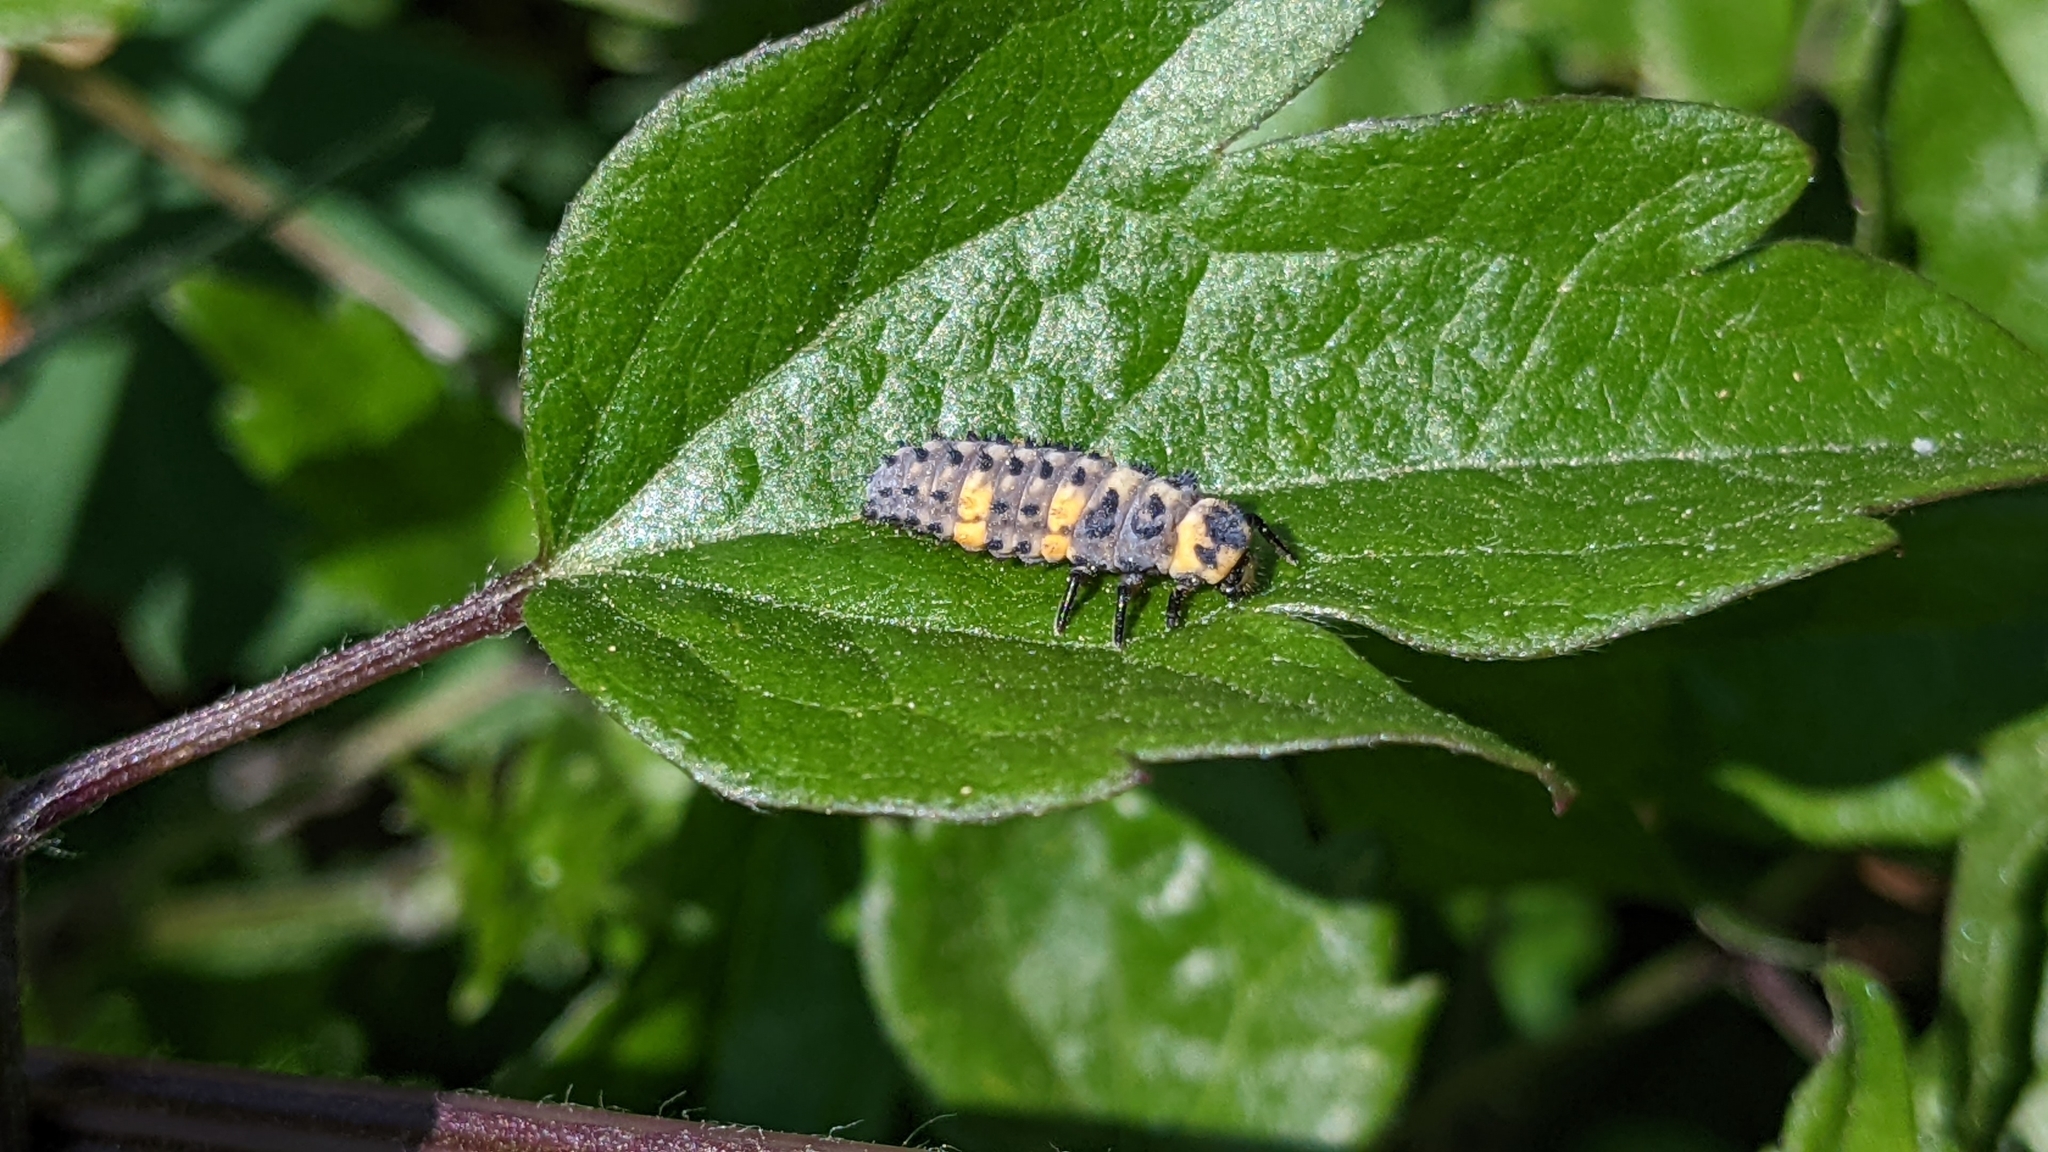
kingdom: Animalia
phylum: Arthropoda
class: Insecta
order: Coleoptera
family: Coccinellidae
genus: Coccinella
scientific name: Coccinella septempunctata
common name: Sevenspotted lady beetle
